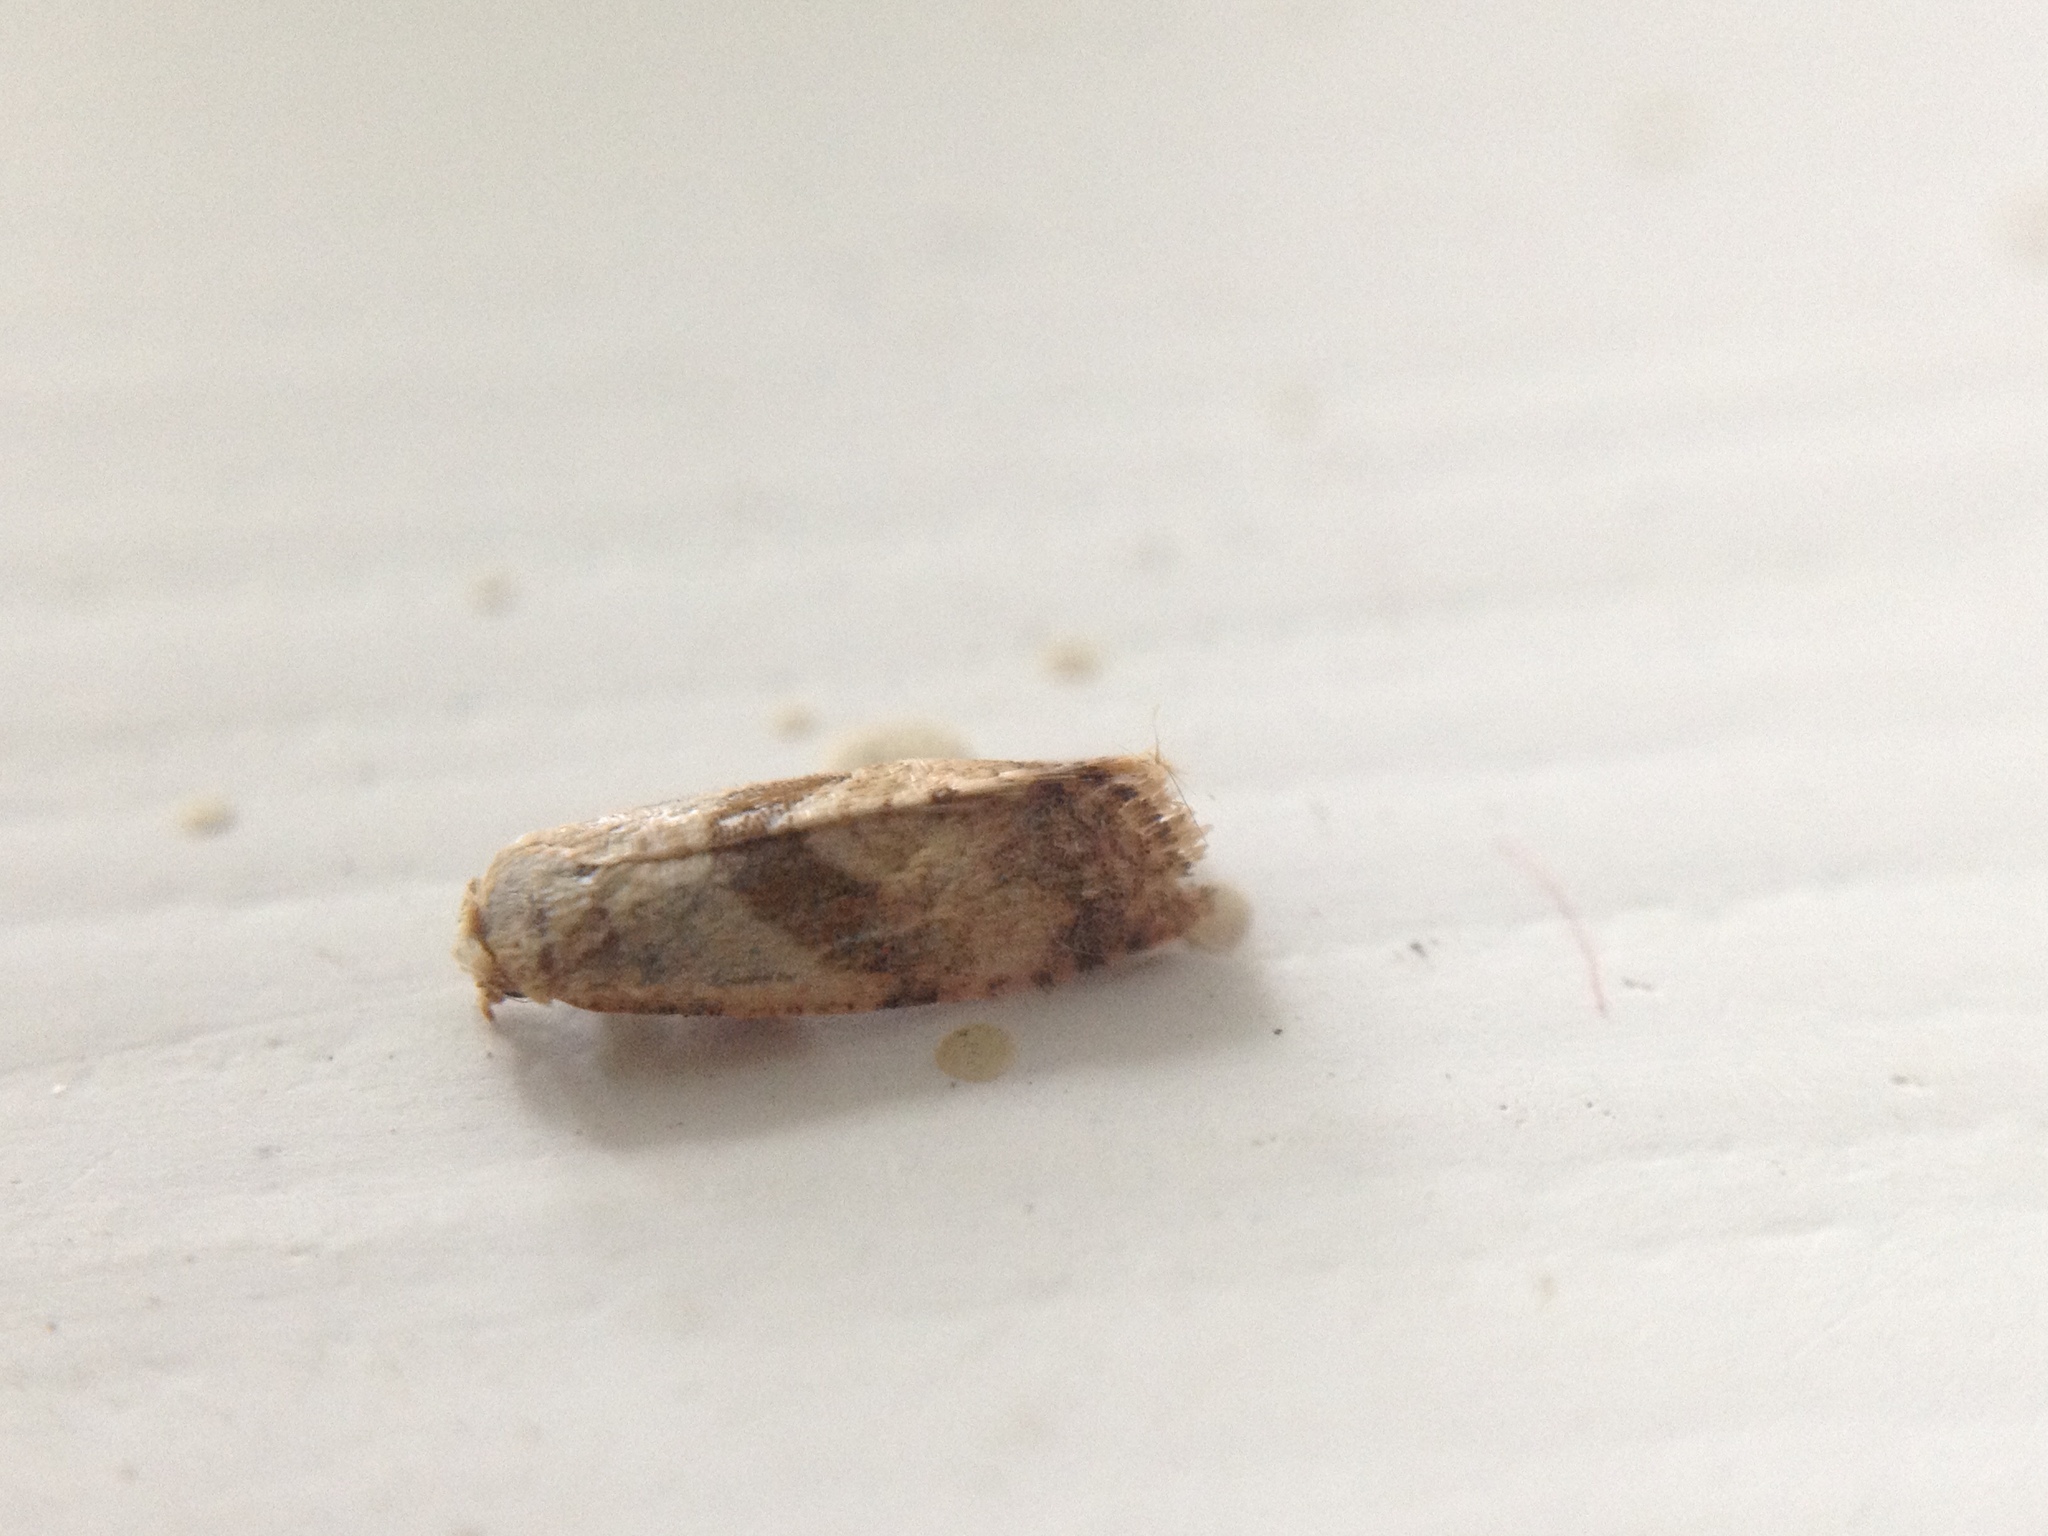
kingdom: Animalia
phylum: Arthropoda
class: Insecta
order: Lepidoptera
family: Tortricidae
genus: Cochylidia
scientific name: Cochylidia implicitana
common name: Chamomile conch
